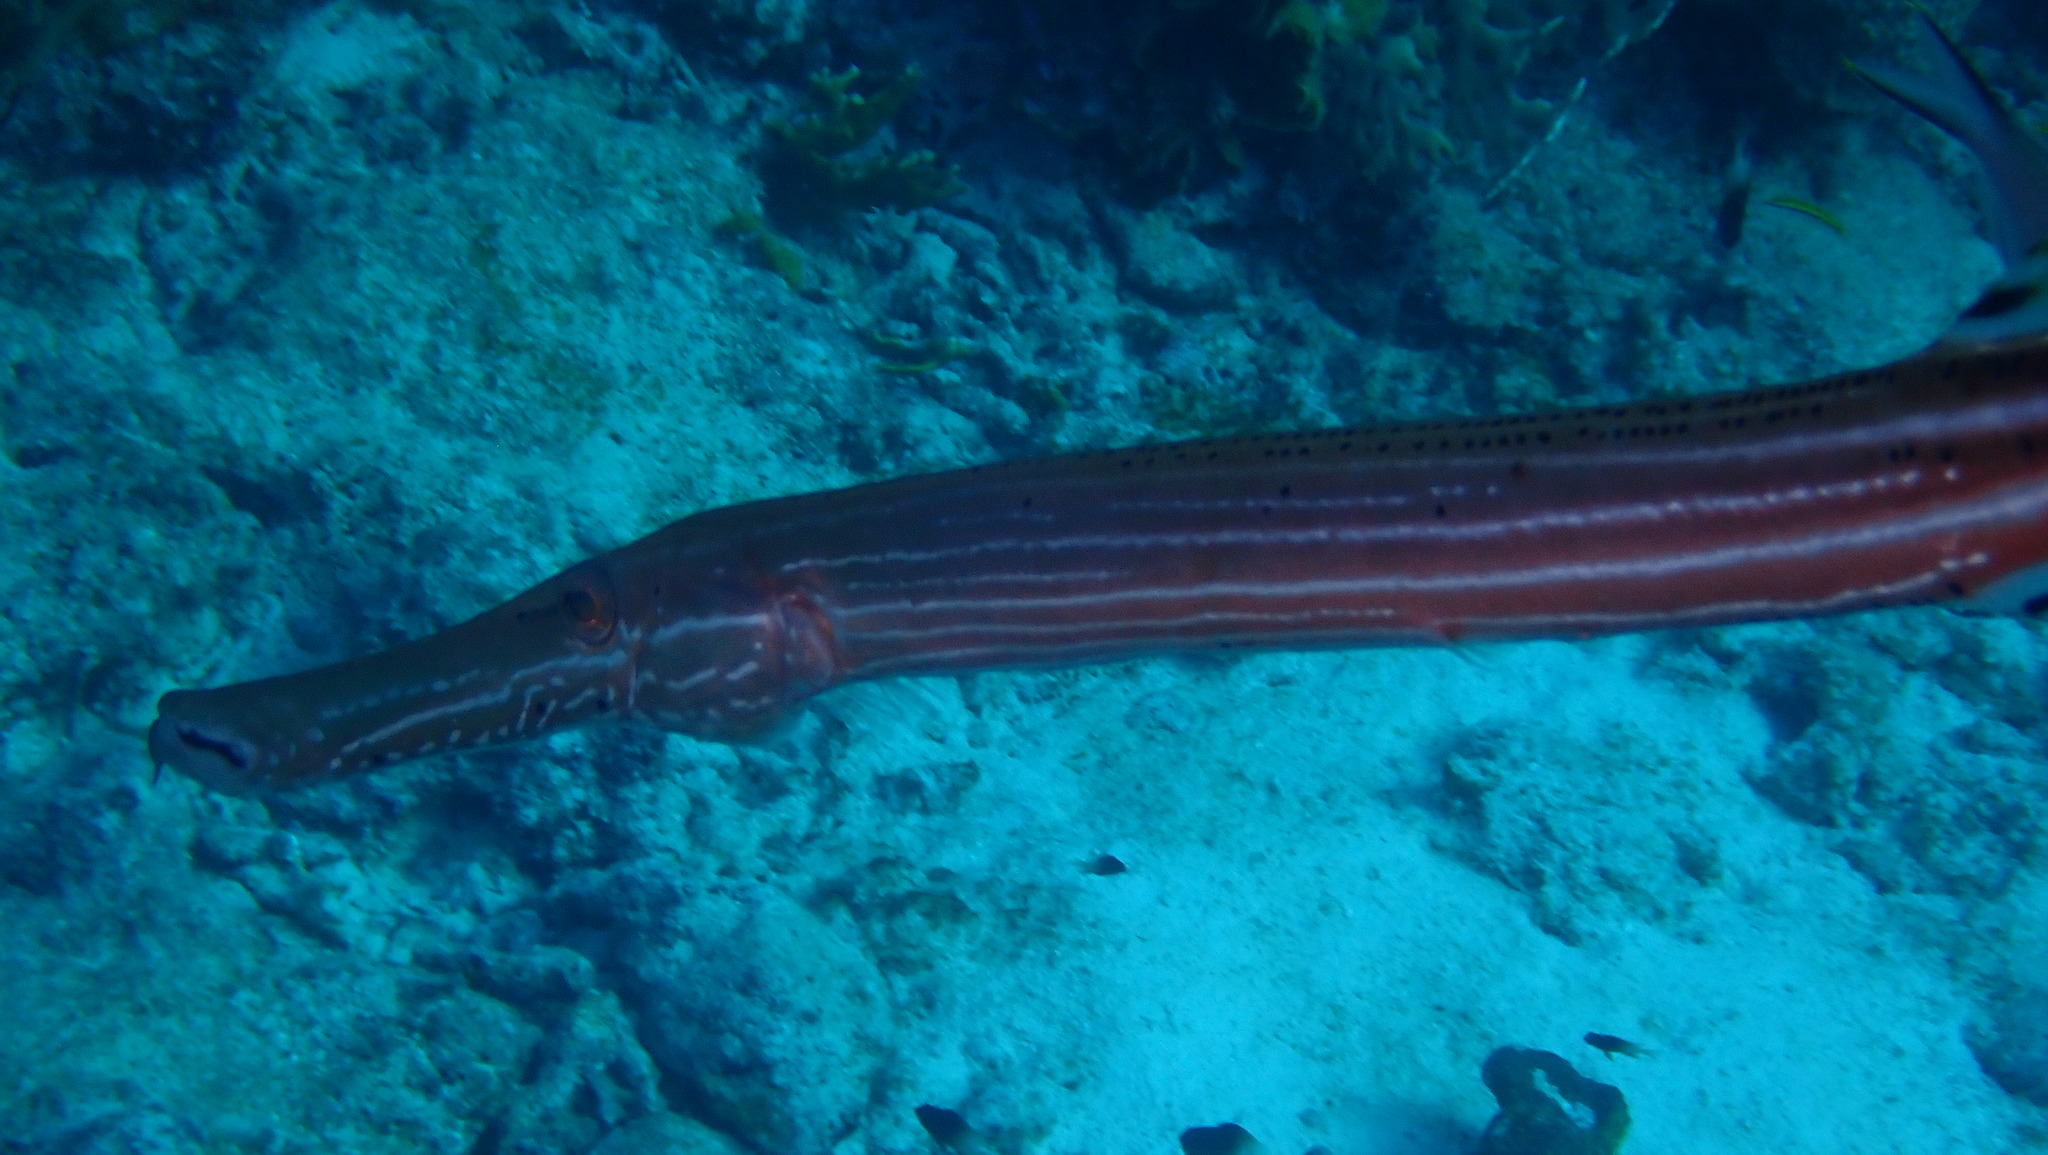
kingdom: Animalia
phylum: Chordata
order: Syngnathiformes
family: Aulostomidae
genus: Aulostomus
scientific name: Aulostomus maculatus
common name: West atlantic trumpetfish
